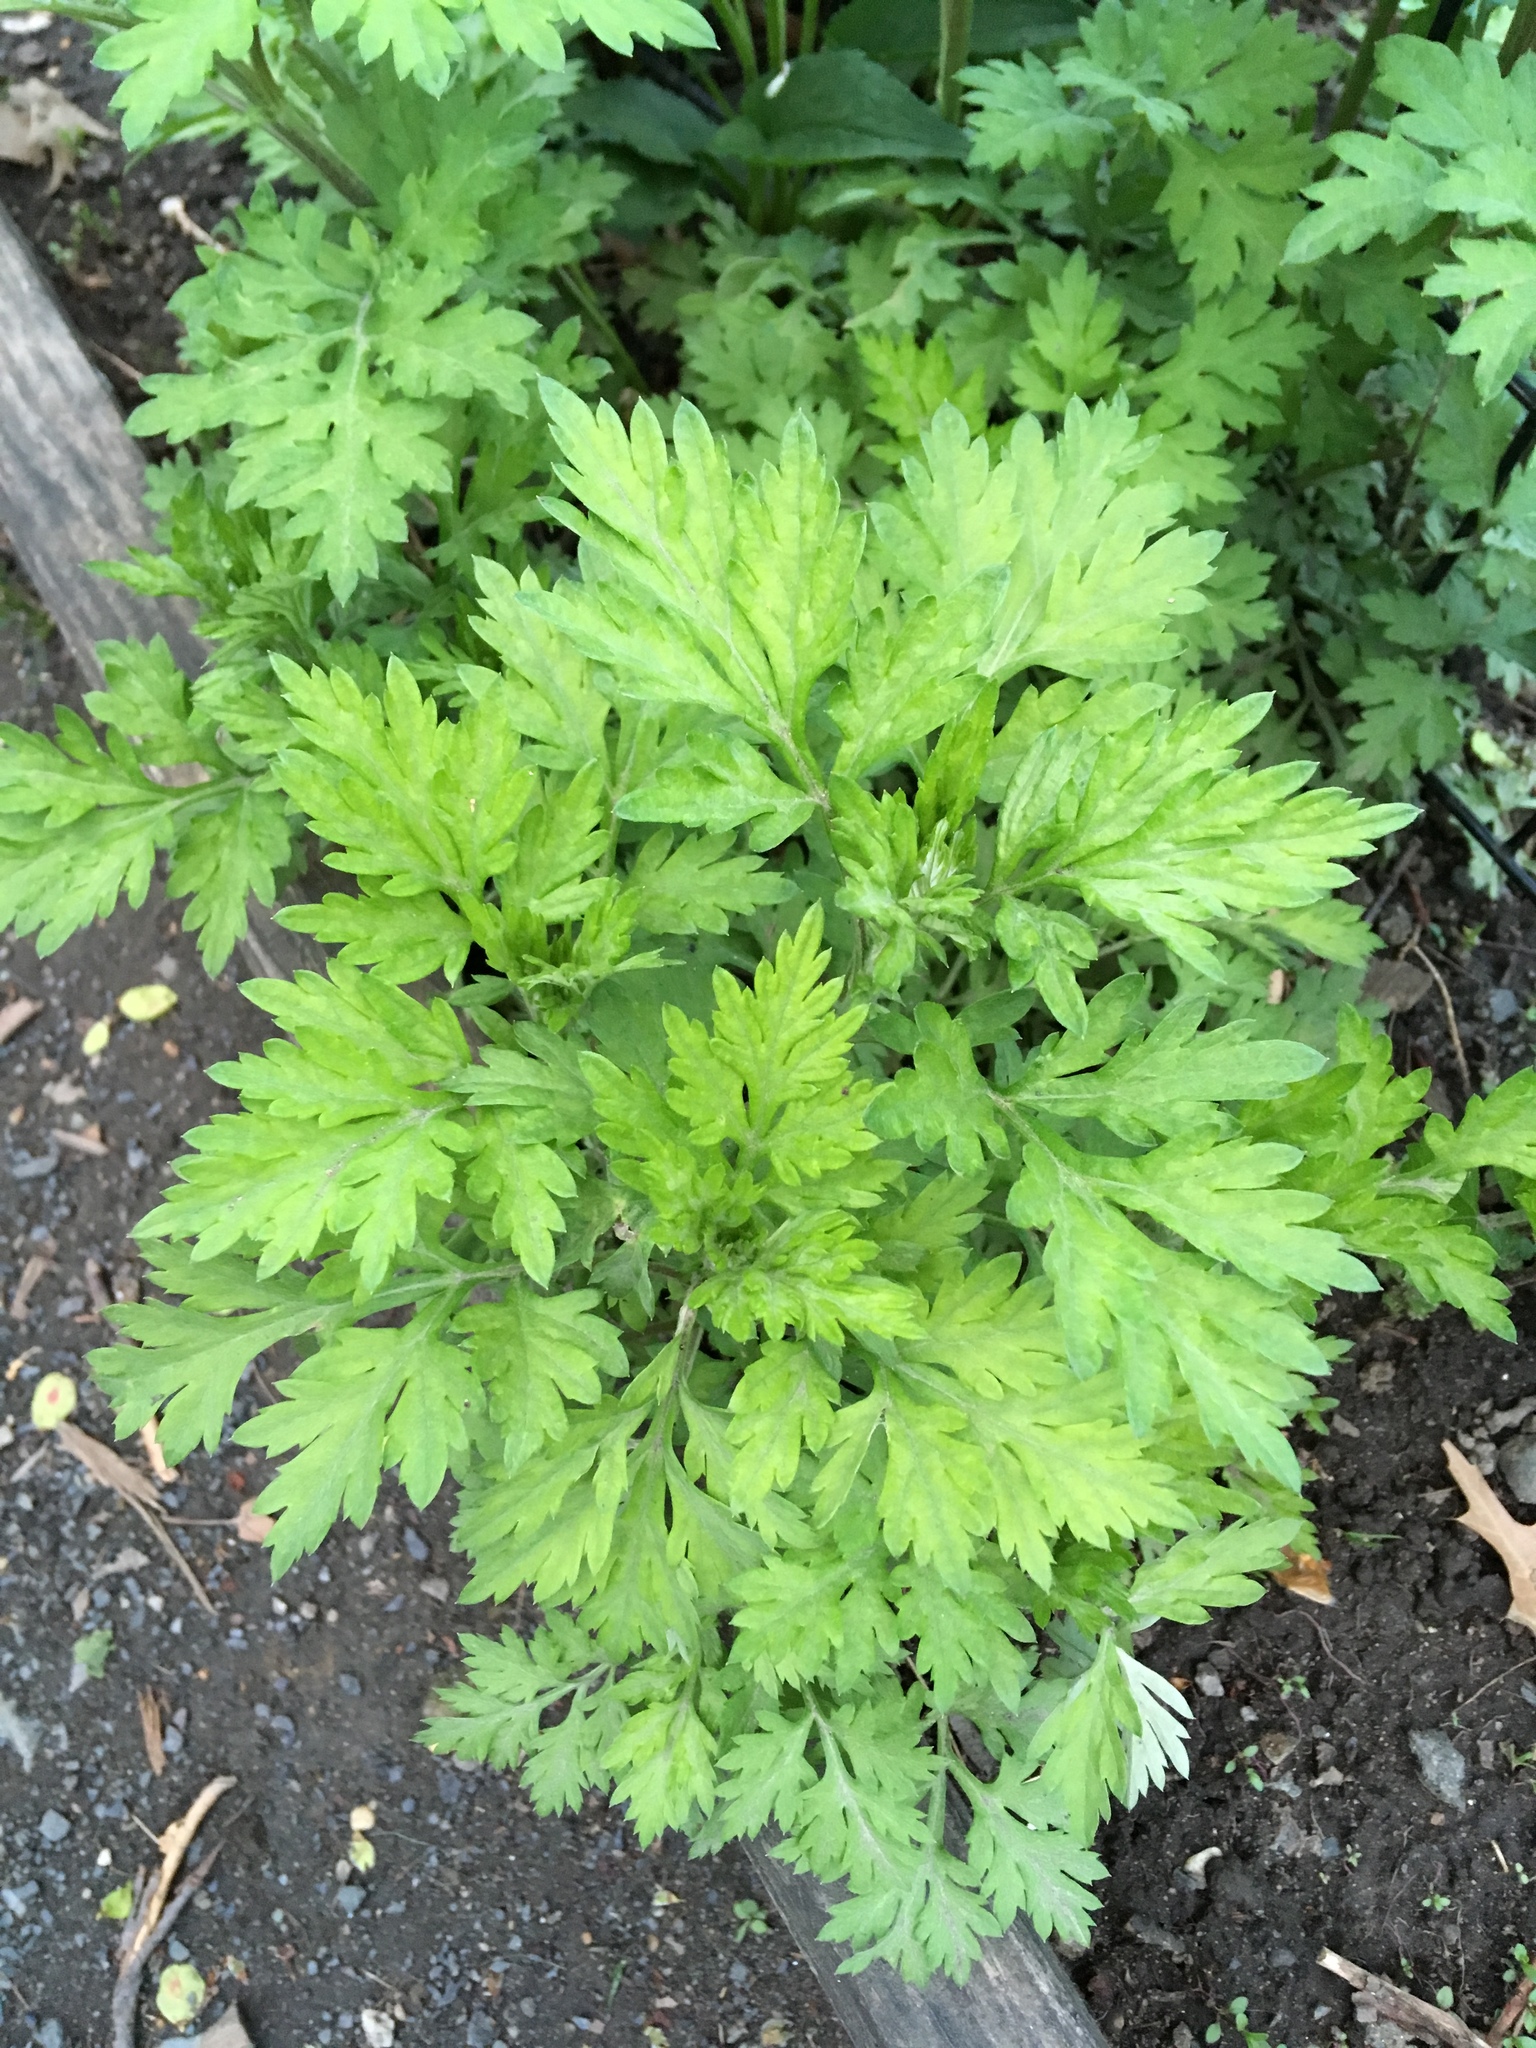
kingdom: Plantae
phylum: Tracheophyta
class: Magnoliopsida
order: Asterales
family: Asteraceae
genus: Artemisia
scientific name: Artemisia vulgaris
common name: Mugwort
